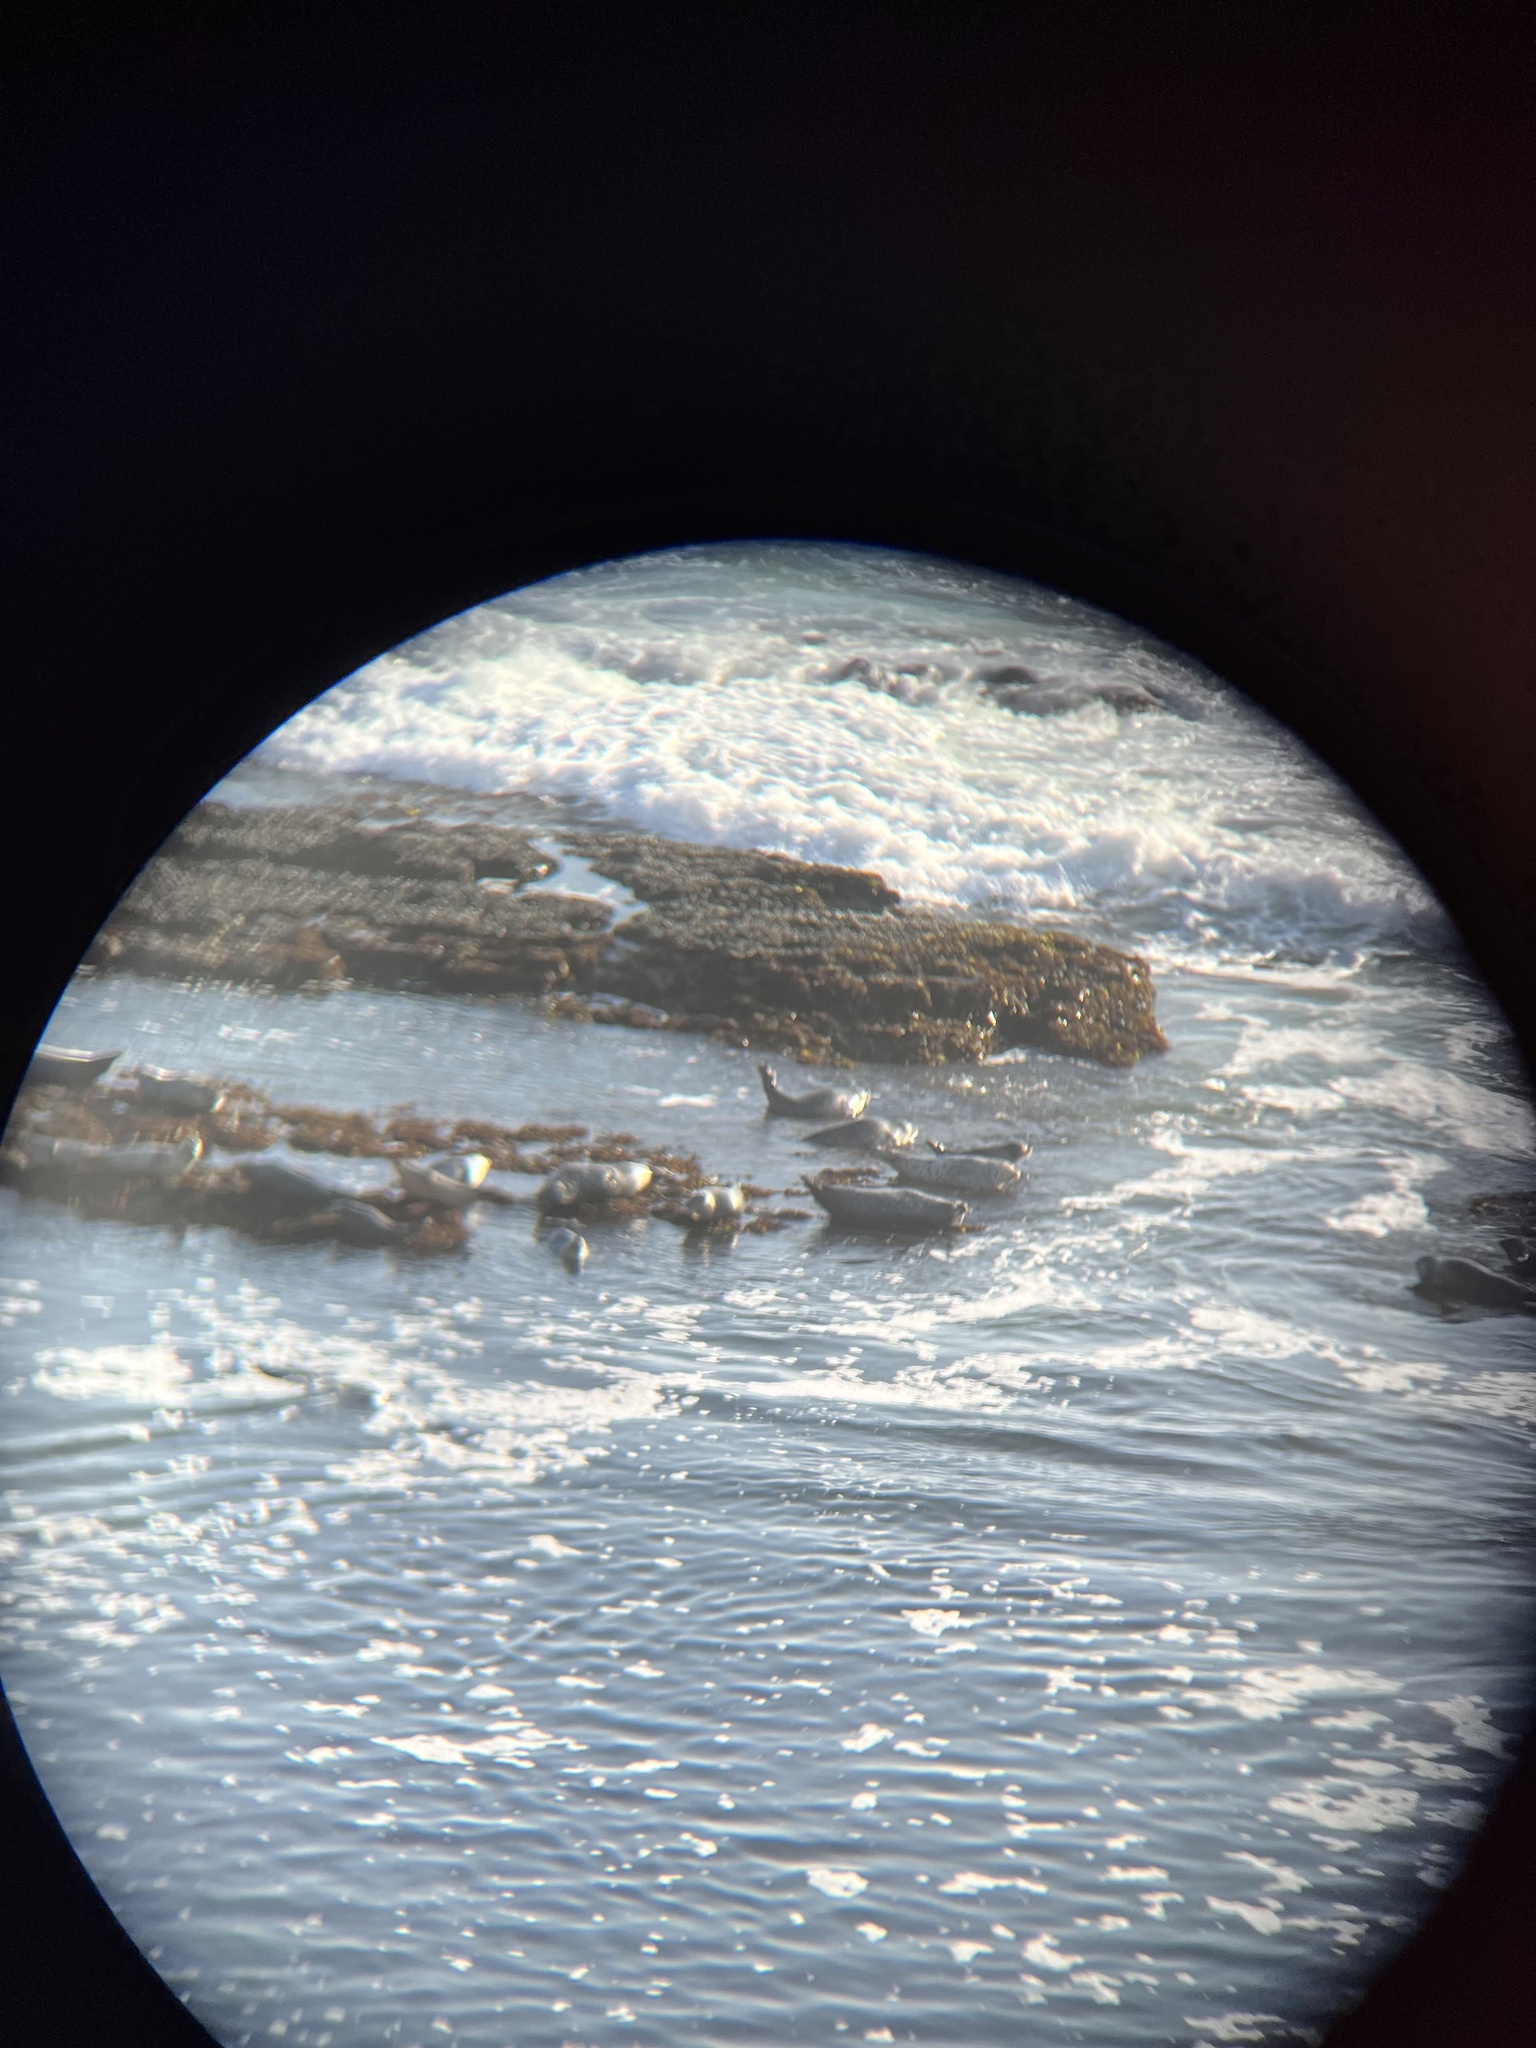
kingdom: Animalia
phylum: Chordata
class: Mammalia
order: Carnivora
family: Phocidae
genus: Phoca
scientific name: Phoca vitulina
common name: Harbor seal
